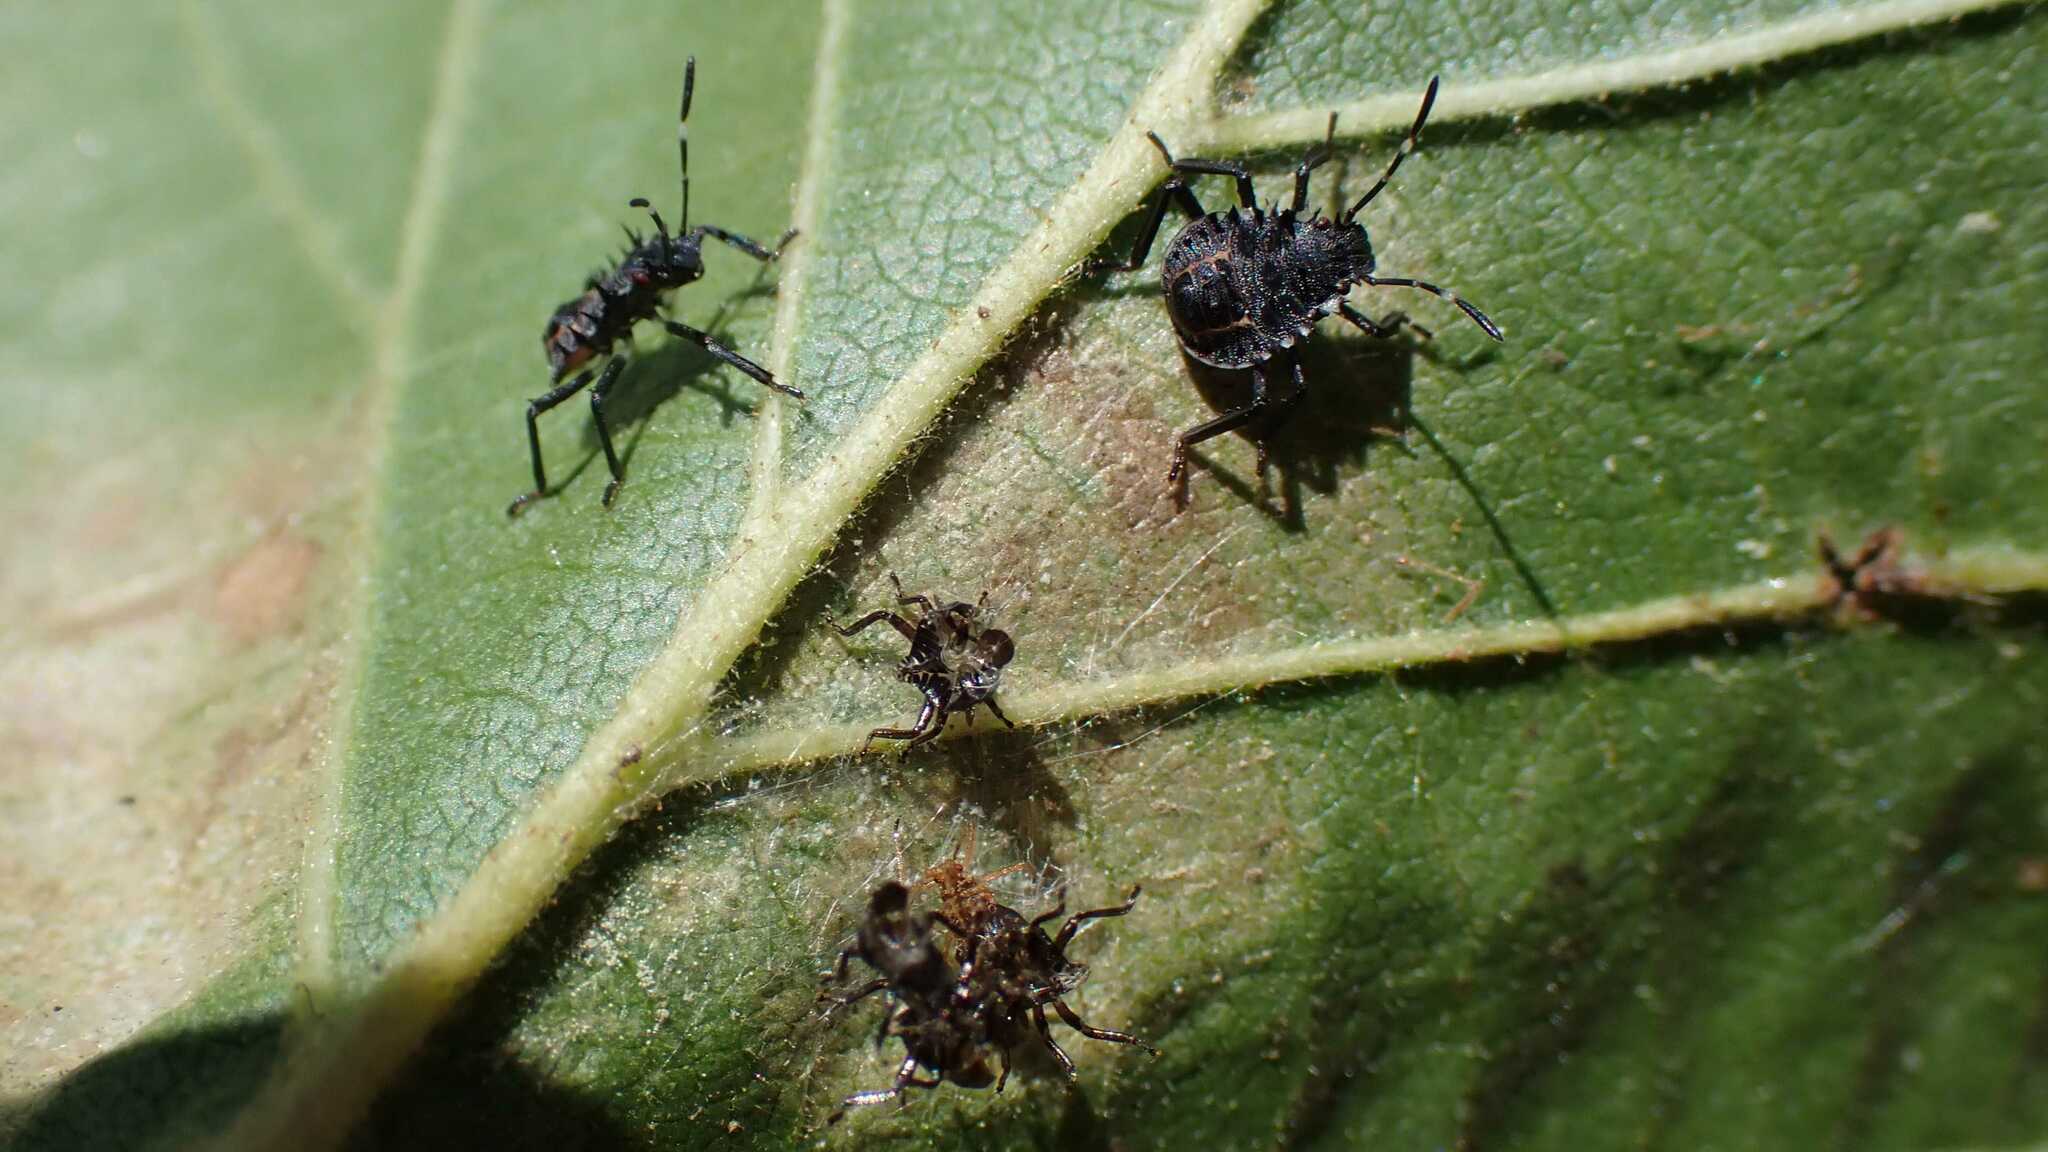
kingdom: Animalia
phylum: Arthropoda
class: Insecta
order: Hemiptera
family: Pentatomidae
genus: Halyomorpha
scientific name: Halyomorpha halys
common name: Brown marmorated stink bug
